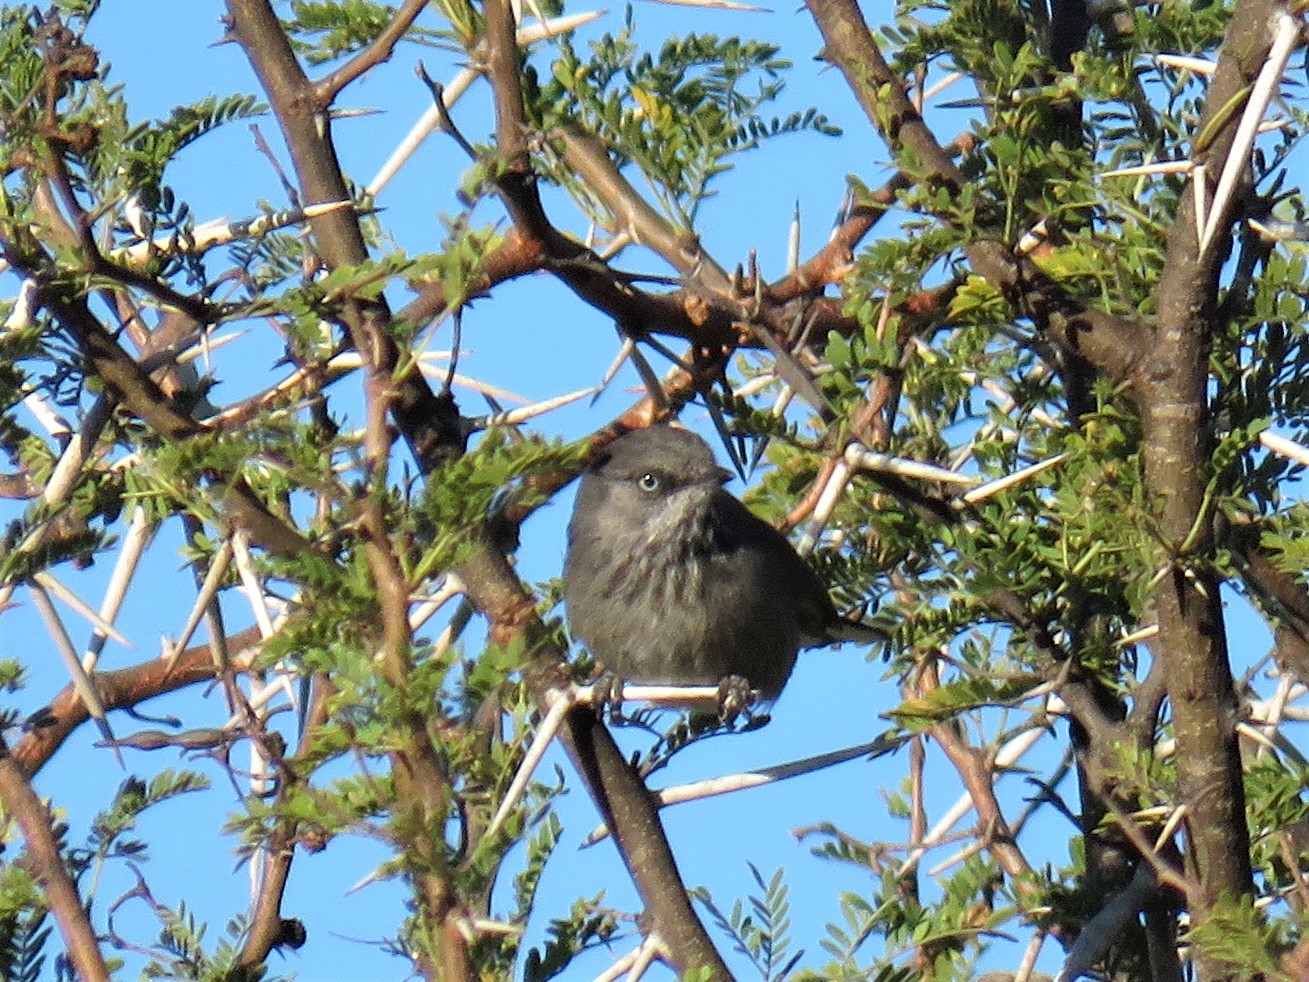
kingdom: Animalia
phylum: Chordata
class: Aves
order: Passeriformes
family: Sylviidae
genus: Curruca
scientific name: Curruca subcoerulea
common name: Chestnut-vented warbler
